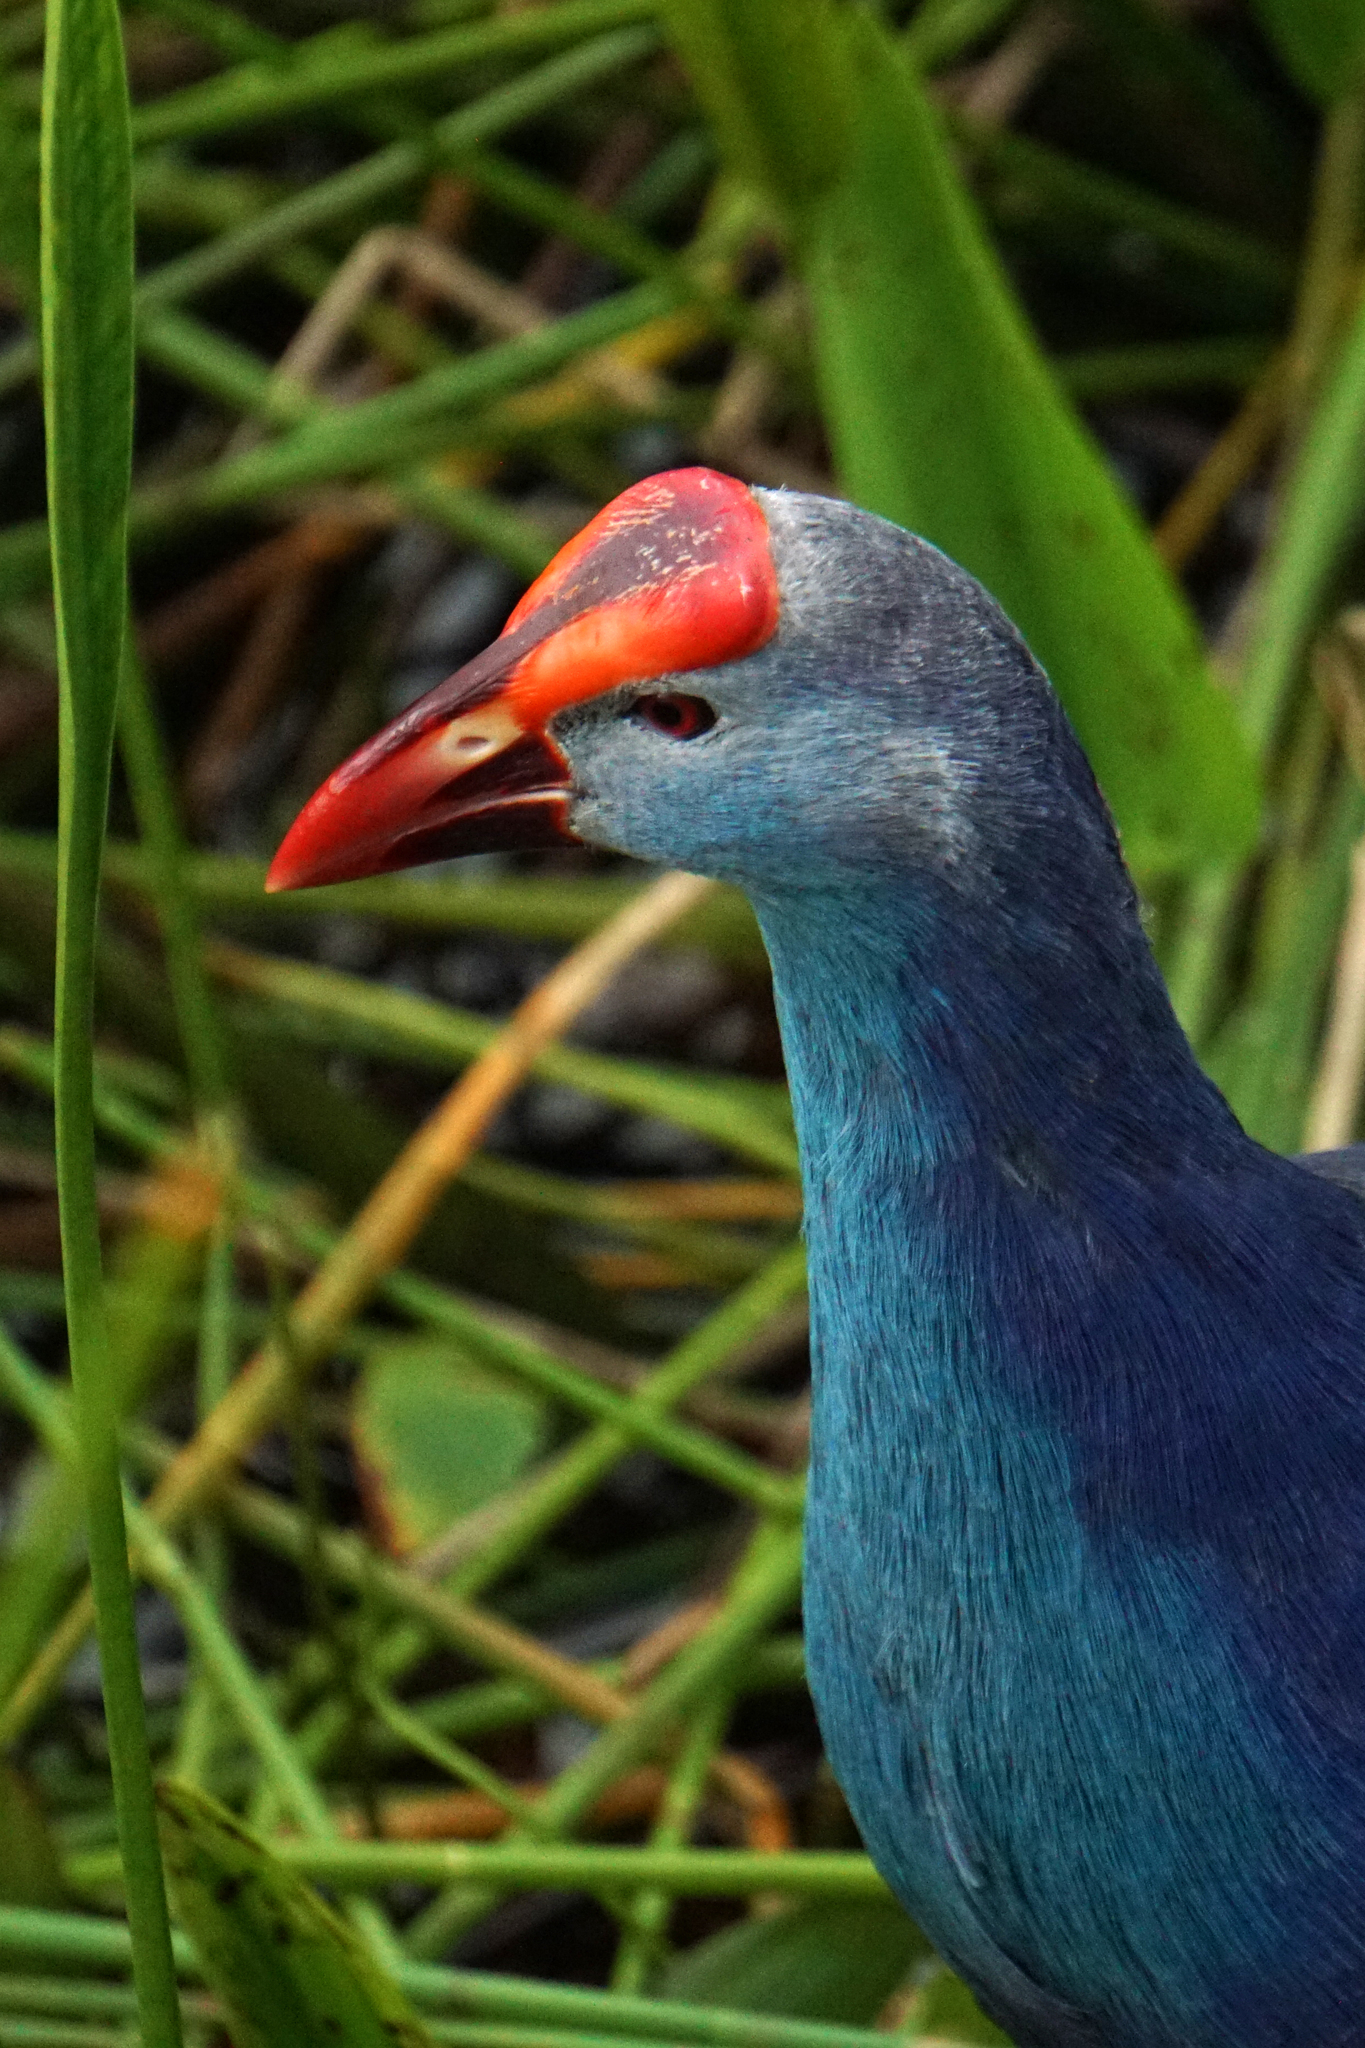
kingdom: Animalia
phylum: Chordata
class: Aves
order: Gruiformes
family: Rallidae
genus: Porphyrio
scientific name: Porphyrio porphyrio
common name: Purple swamphen
